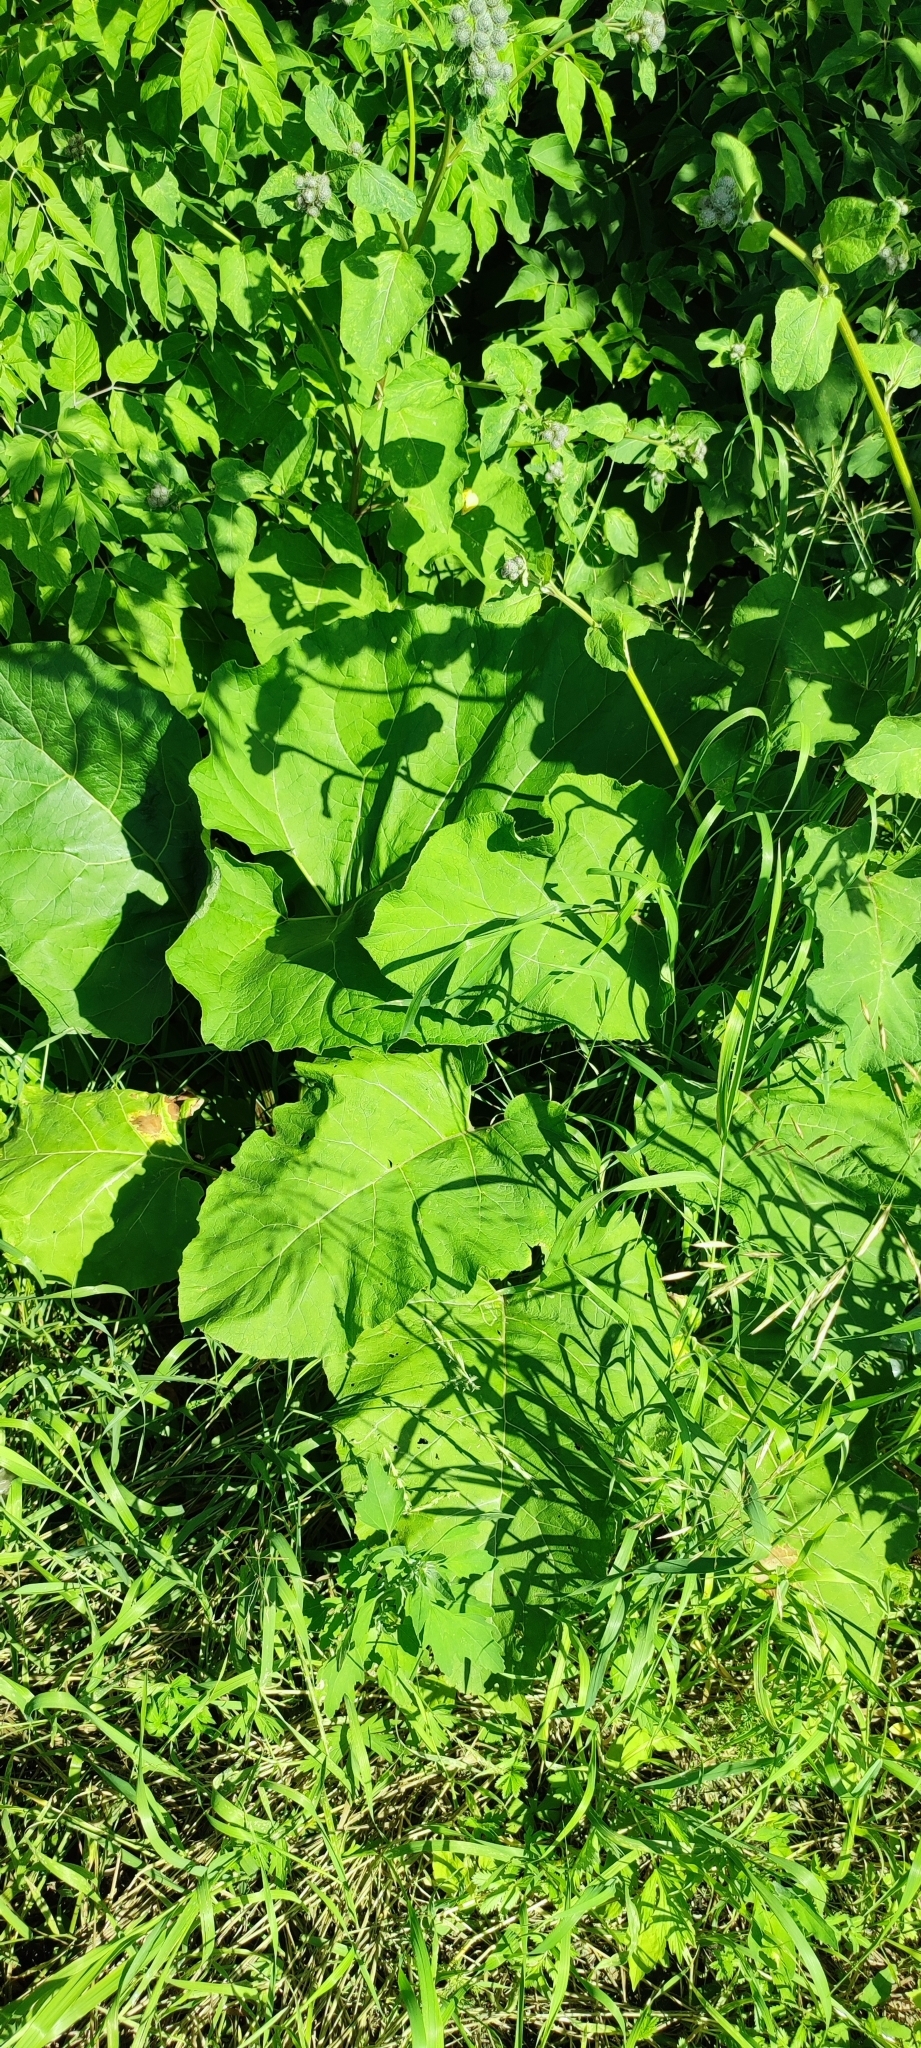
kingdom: Plantae
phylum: Tracheophyta
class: Magnoliopsida
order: Asterales
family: Asteraceae
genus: Arctium
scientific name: Arctium tomentosum
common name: Woolly burdock
